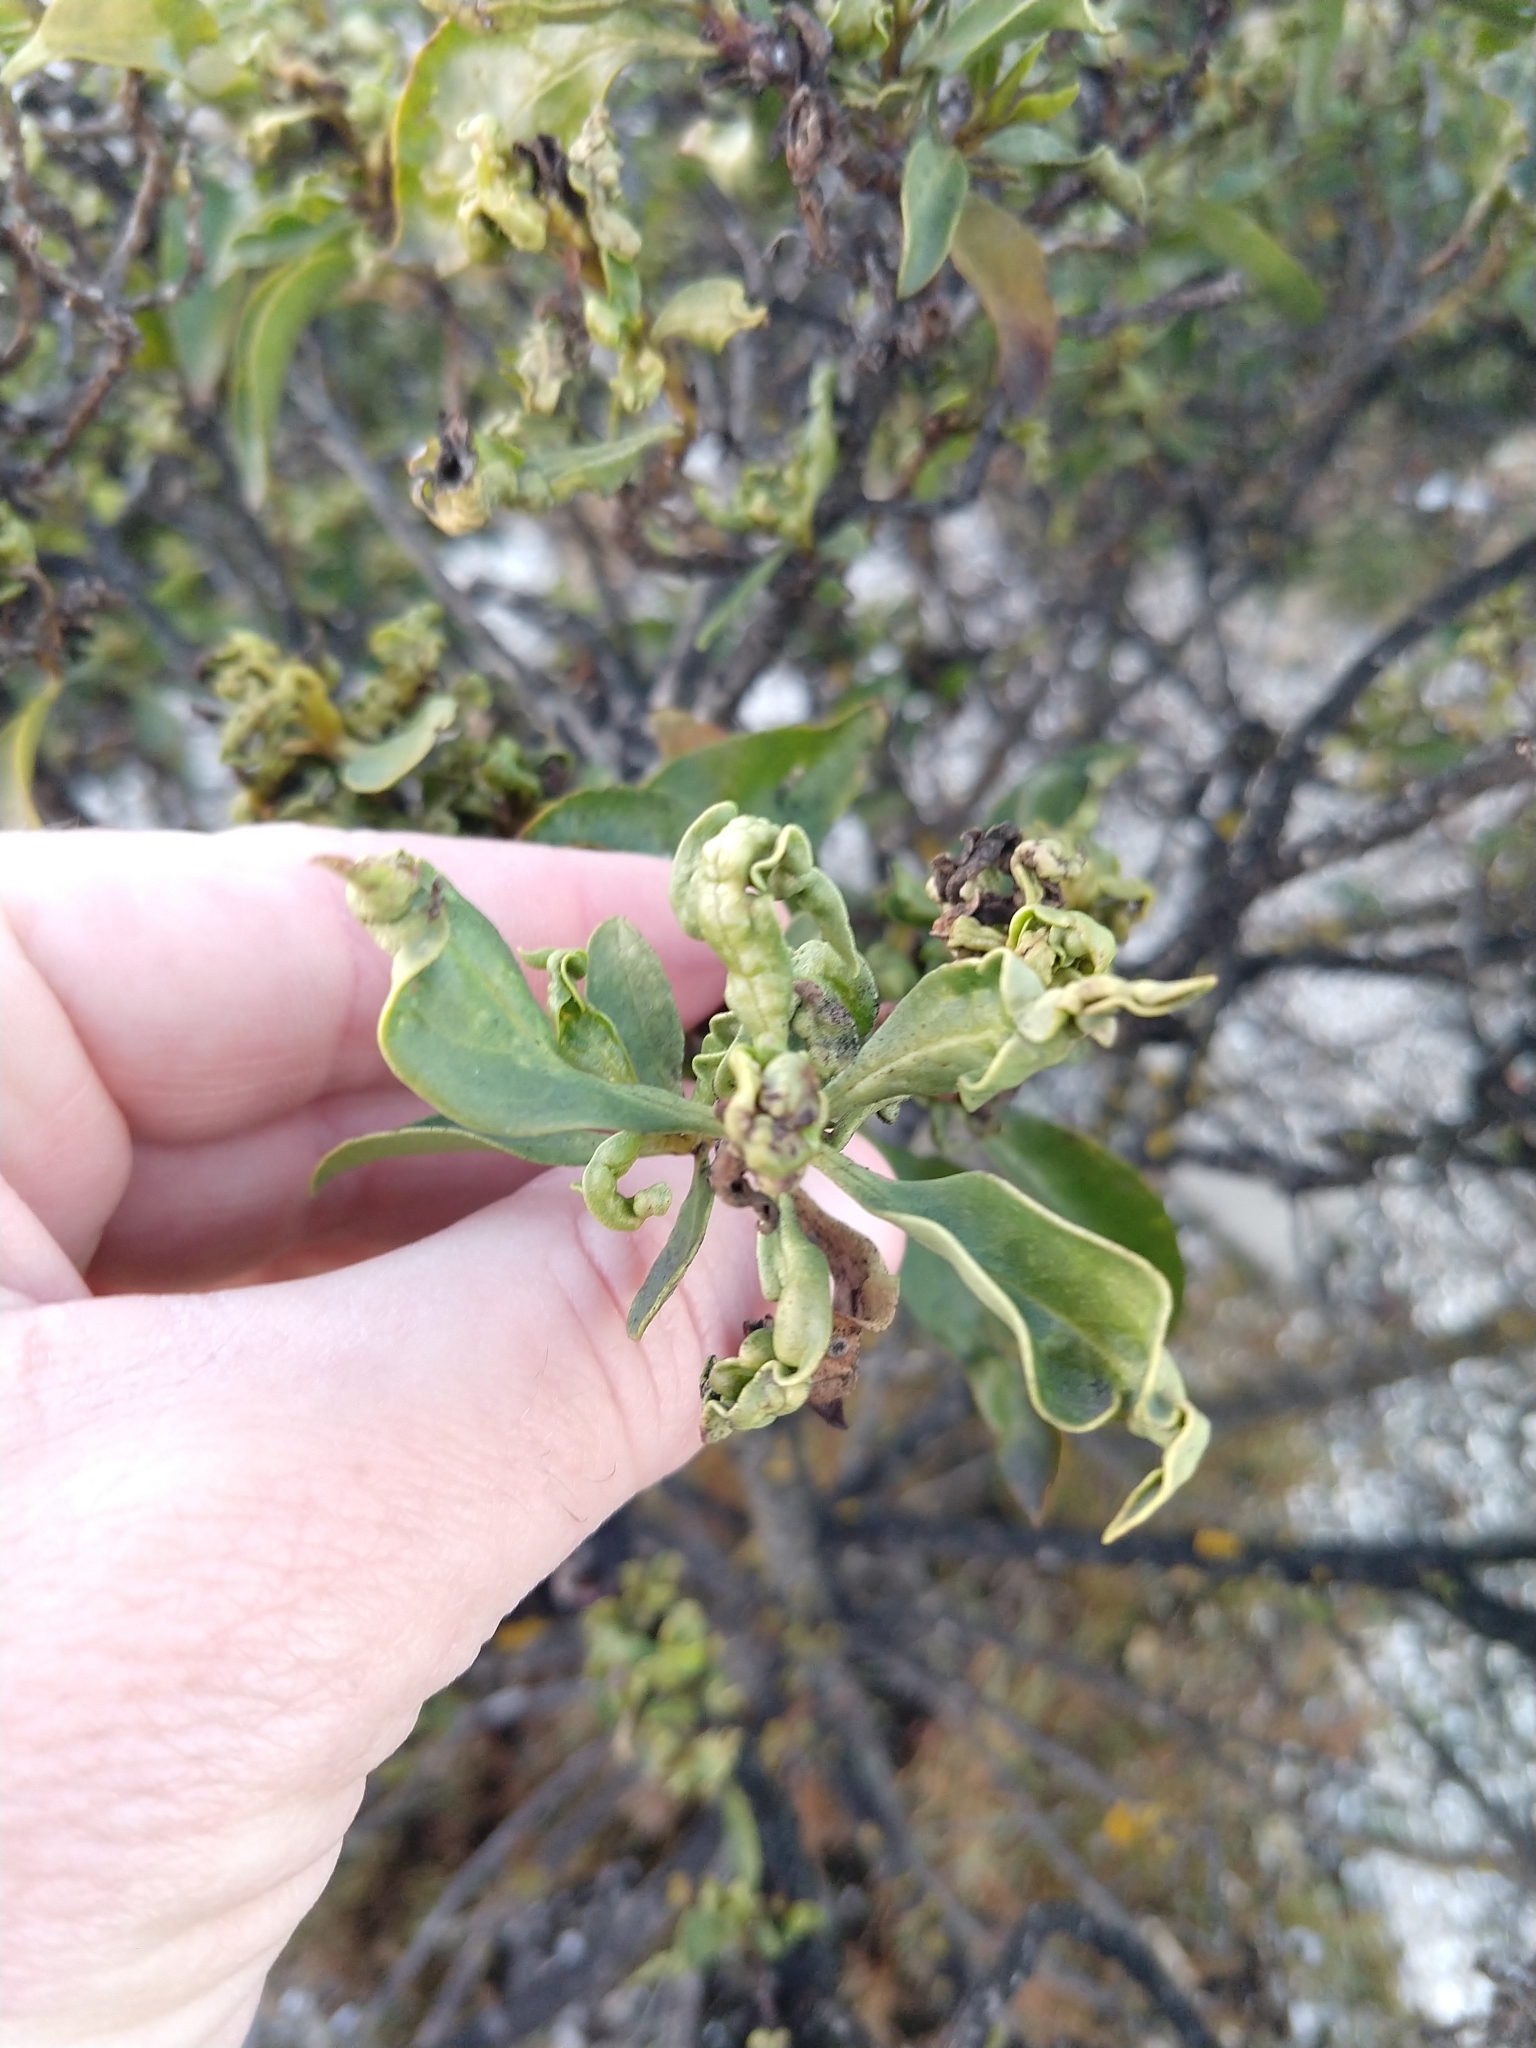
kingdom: Animalia
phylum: Arthropoda
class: Insecta
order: Thysanoptera
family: Phlaeothripidae
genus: Klambothrips
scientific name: Klambothrips myopori
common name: Myoporum thrips
